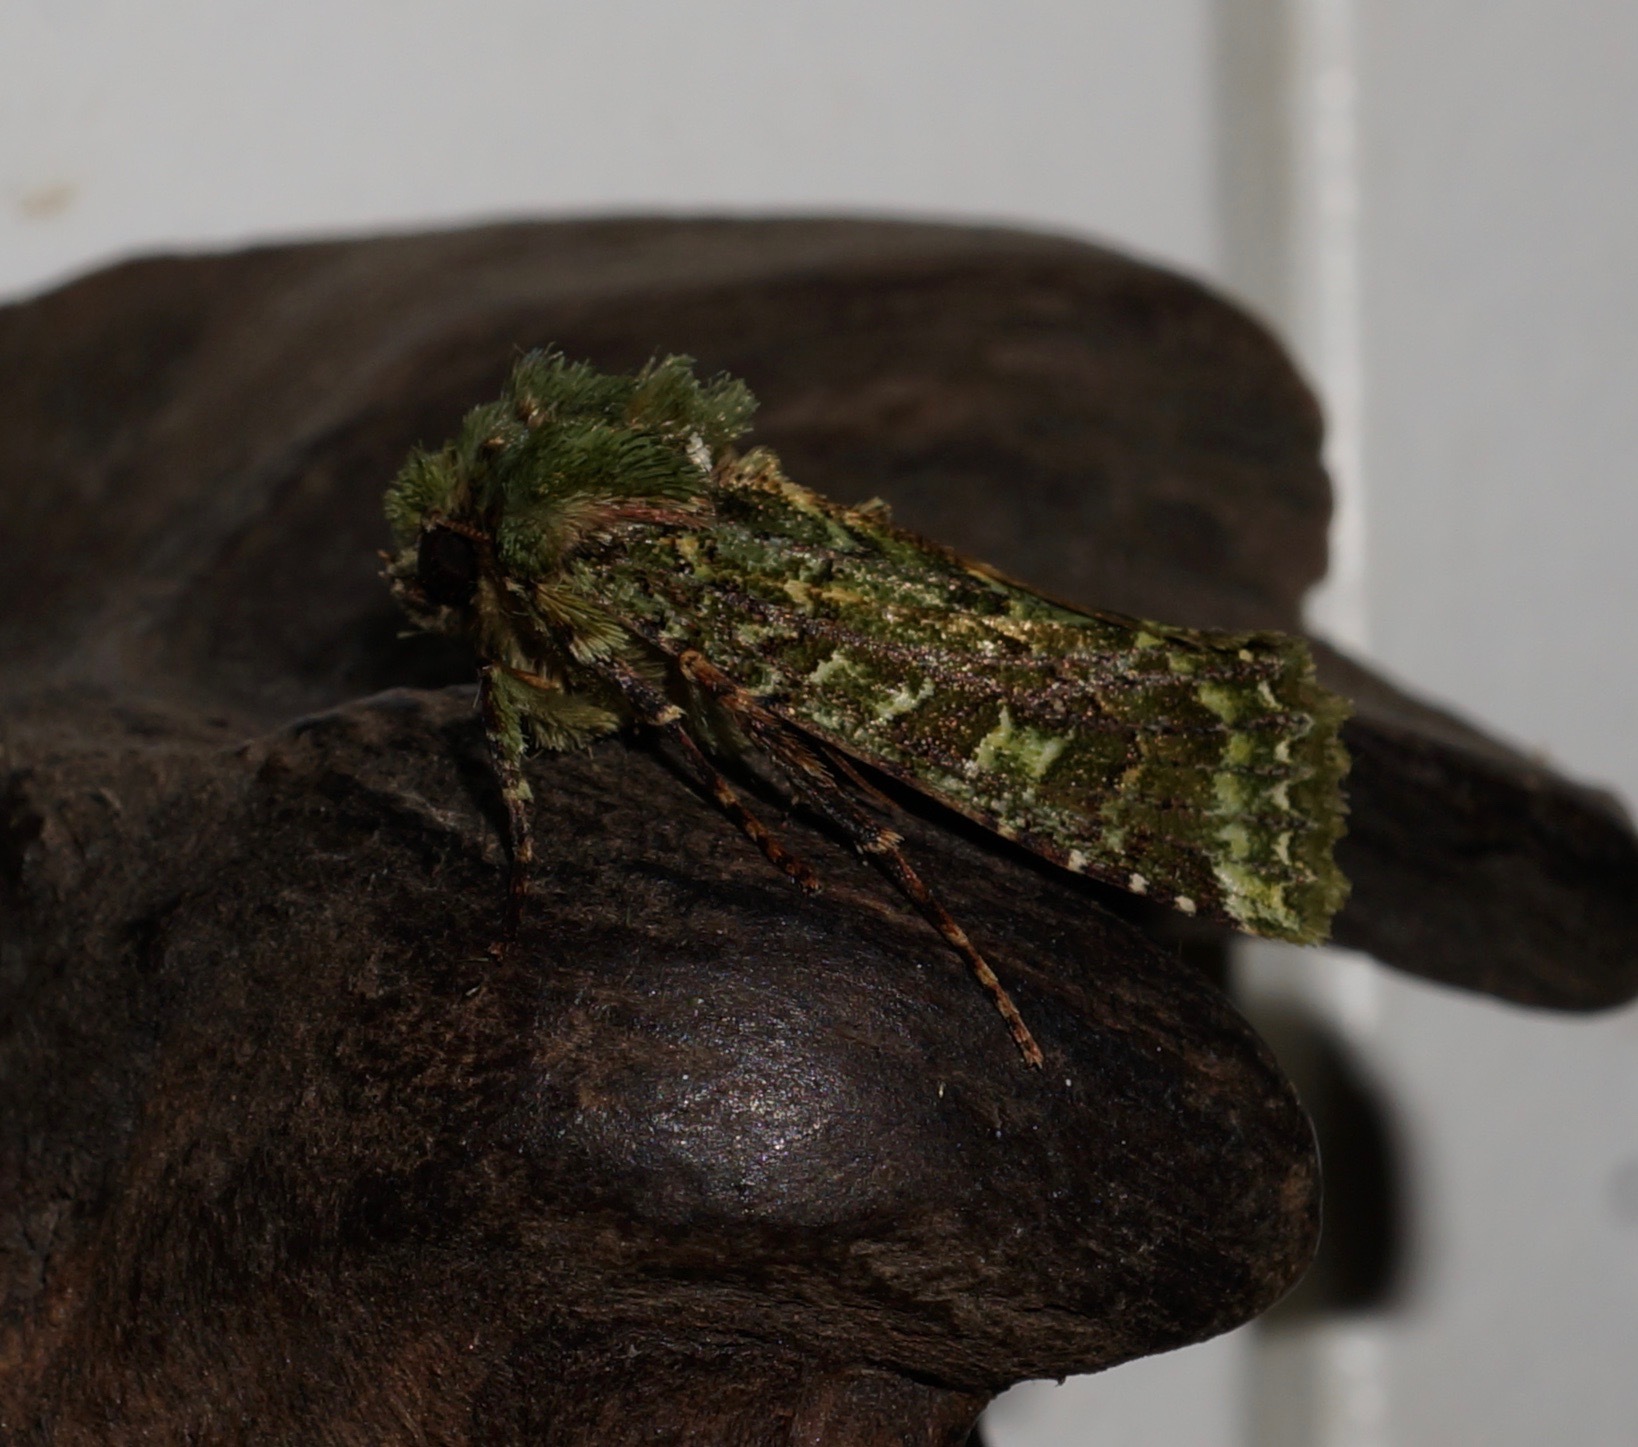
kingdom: Animalia
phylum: Arthropoda
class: Insecta
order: Lepidoptera
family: Noctuidae
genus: Feredayia
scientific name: Feredayia grammosa
